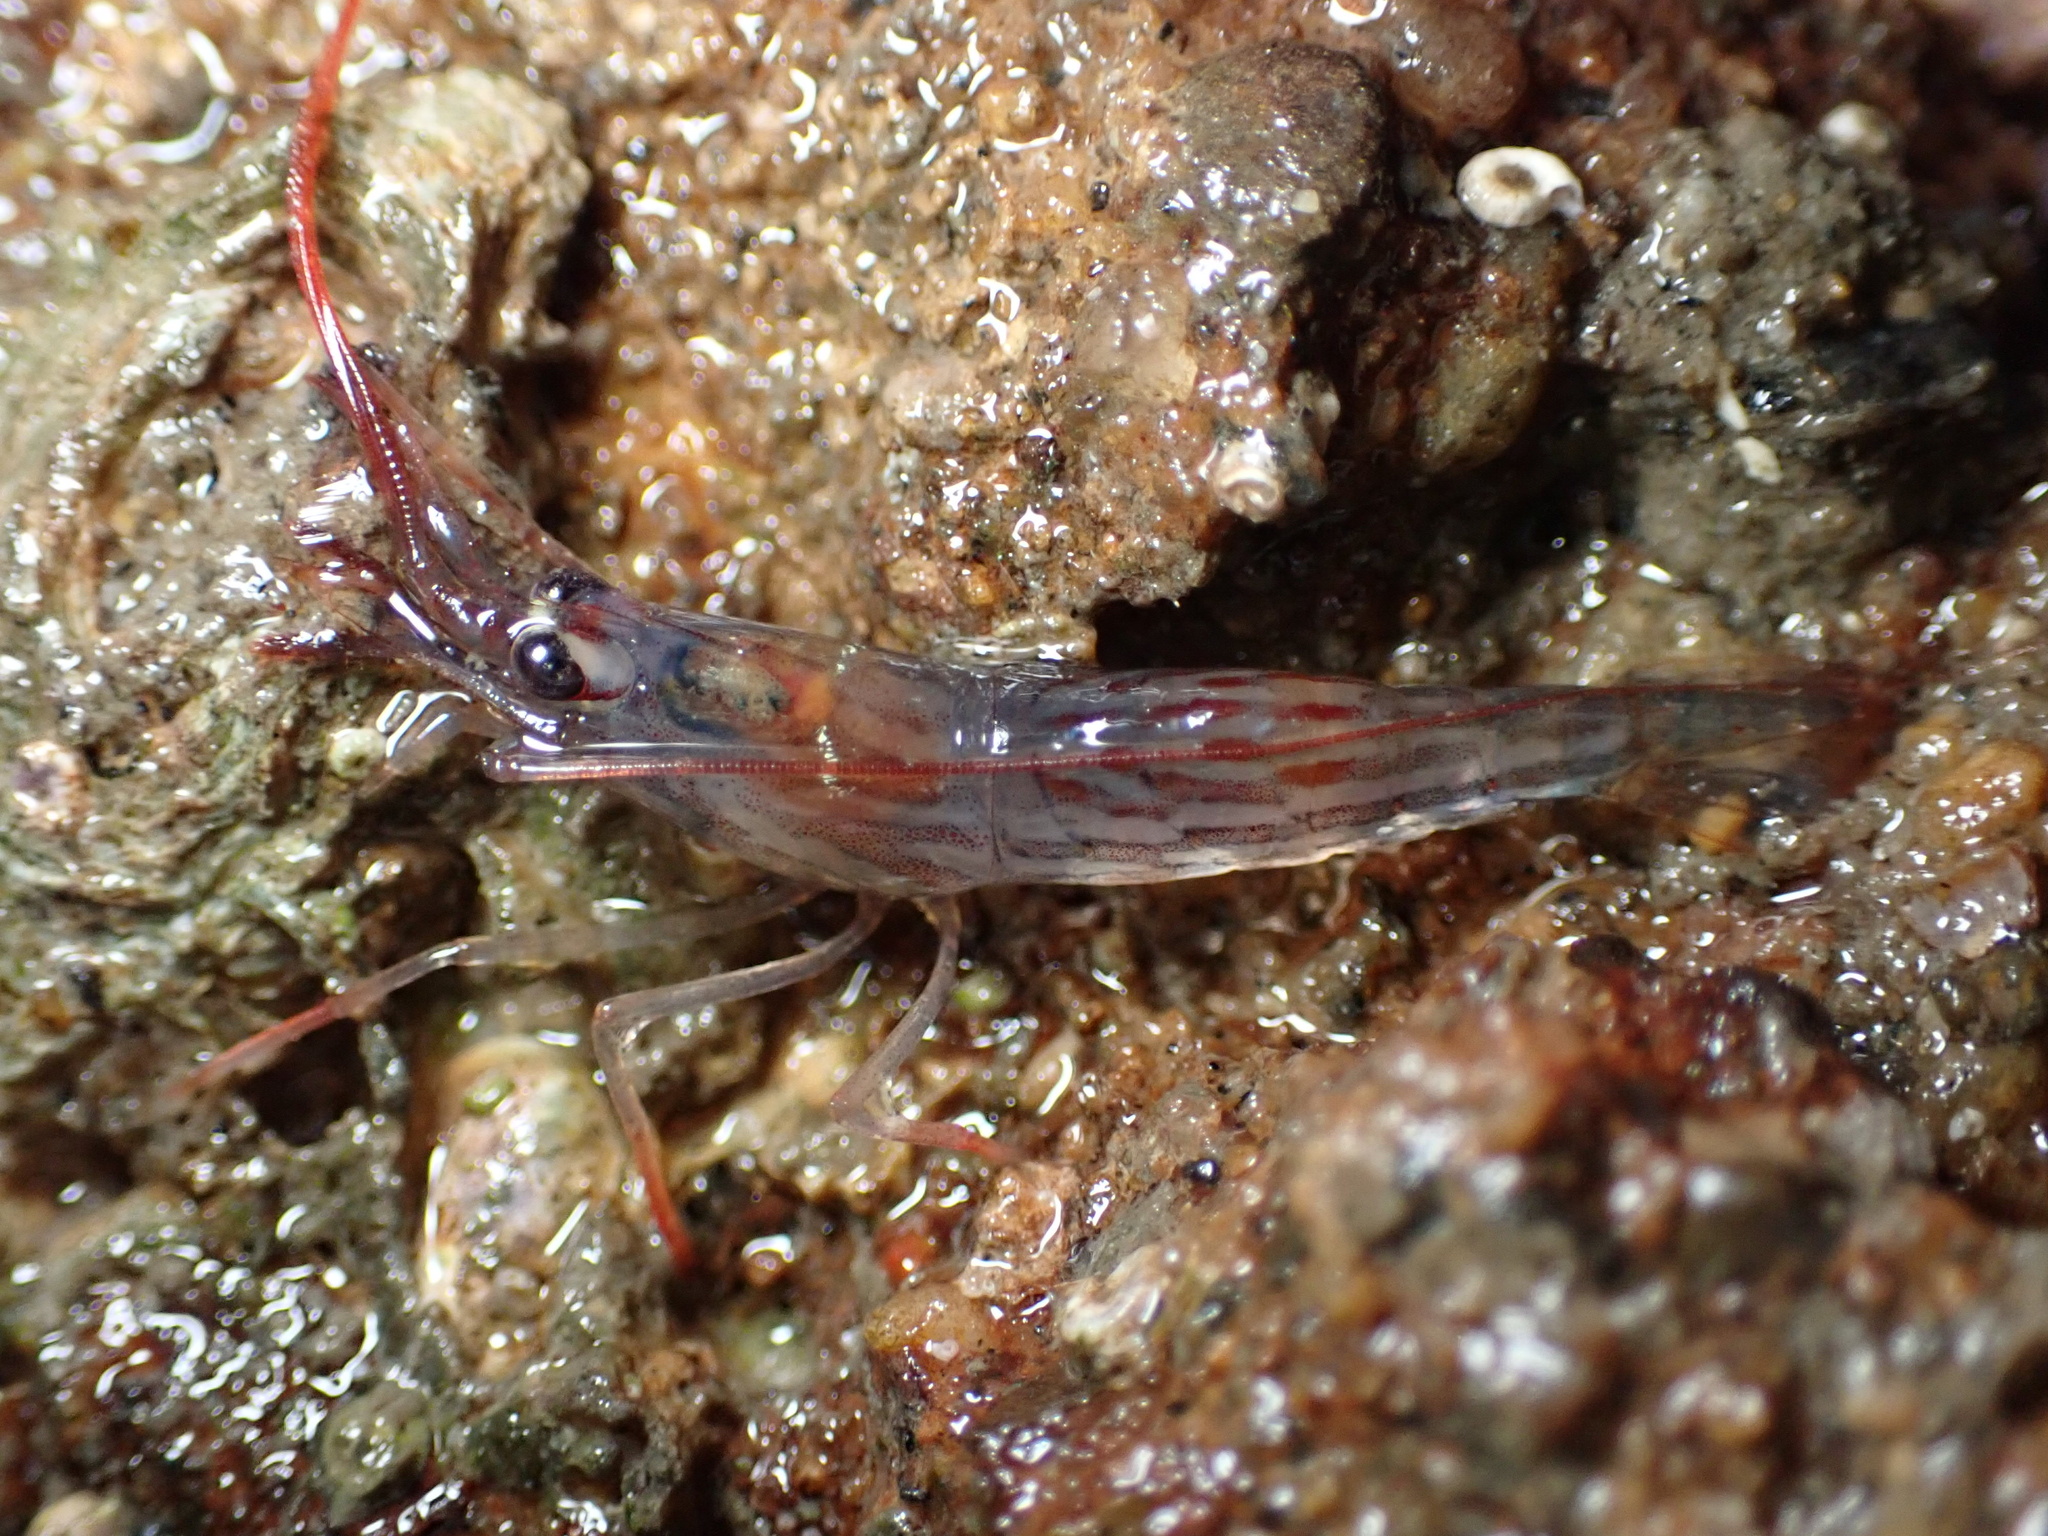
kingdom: Animalia
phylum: Arthropoda
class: Malacostraca
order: Decapoda
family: Lysmatidae
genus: Lysmata
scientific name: Lysmata californica
